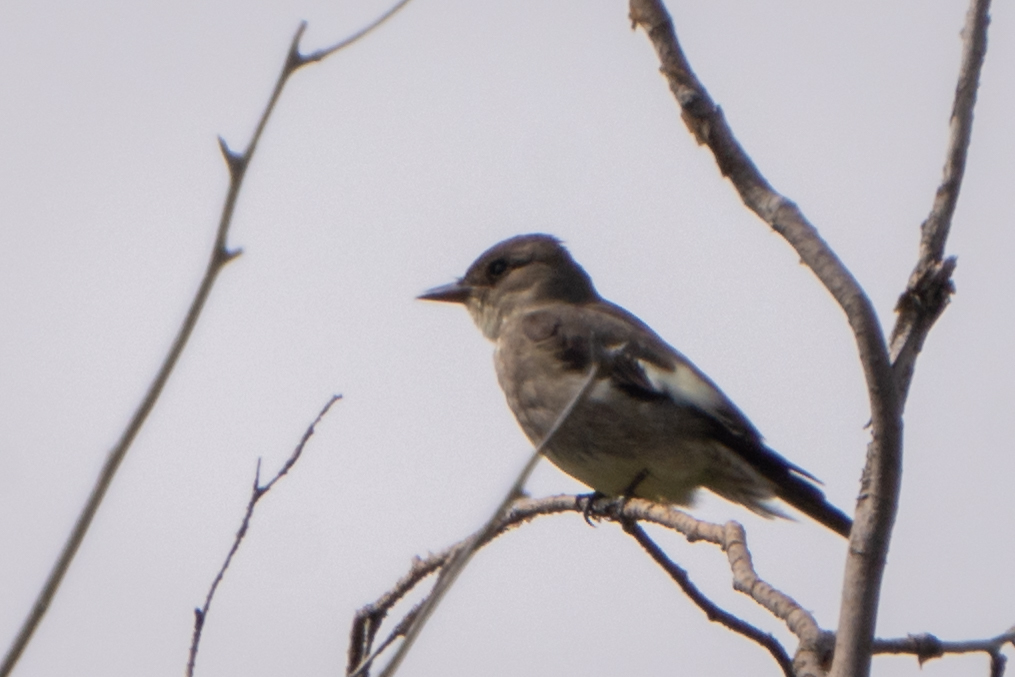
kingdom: Animalia
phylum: Chordata
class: Aves
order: Passeriformes
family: Tyrannidae
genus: Contopus
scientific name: Contopus cooperi
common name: Olive-sided flycatcher
